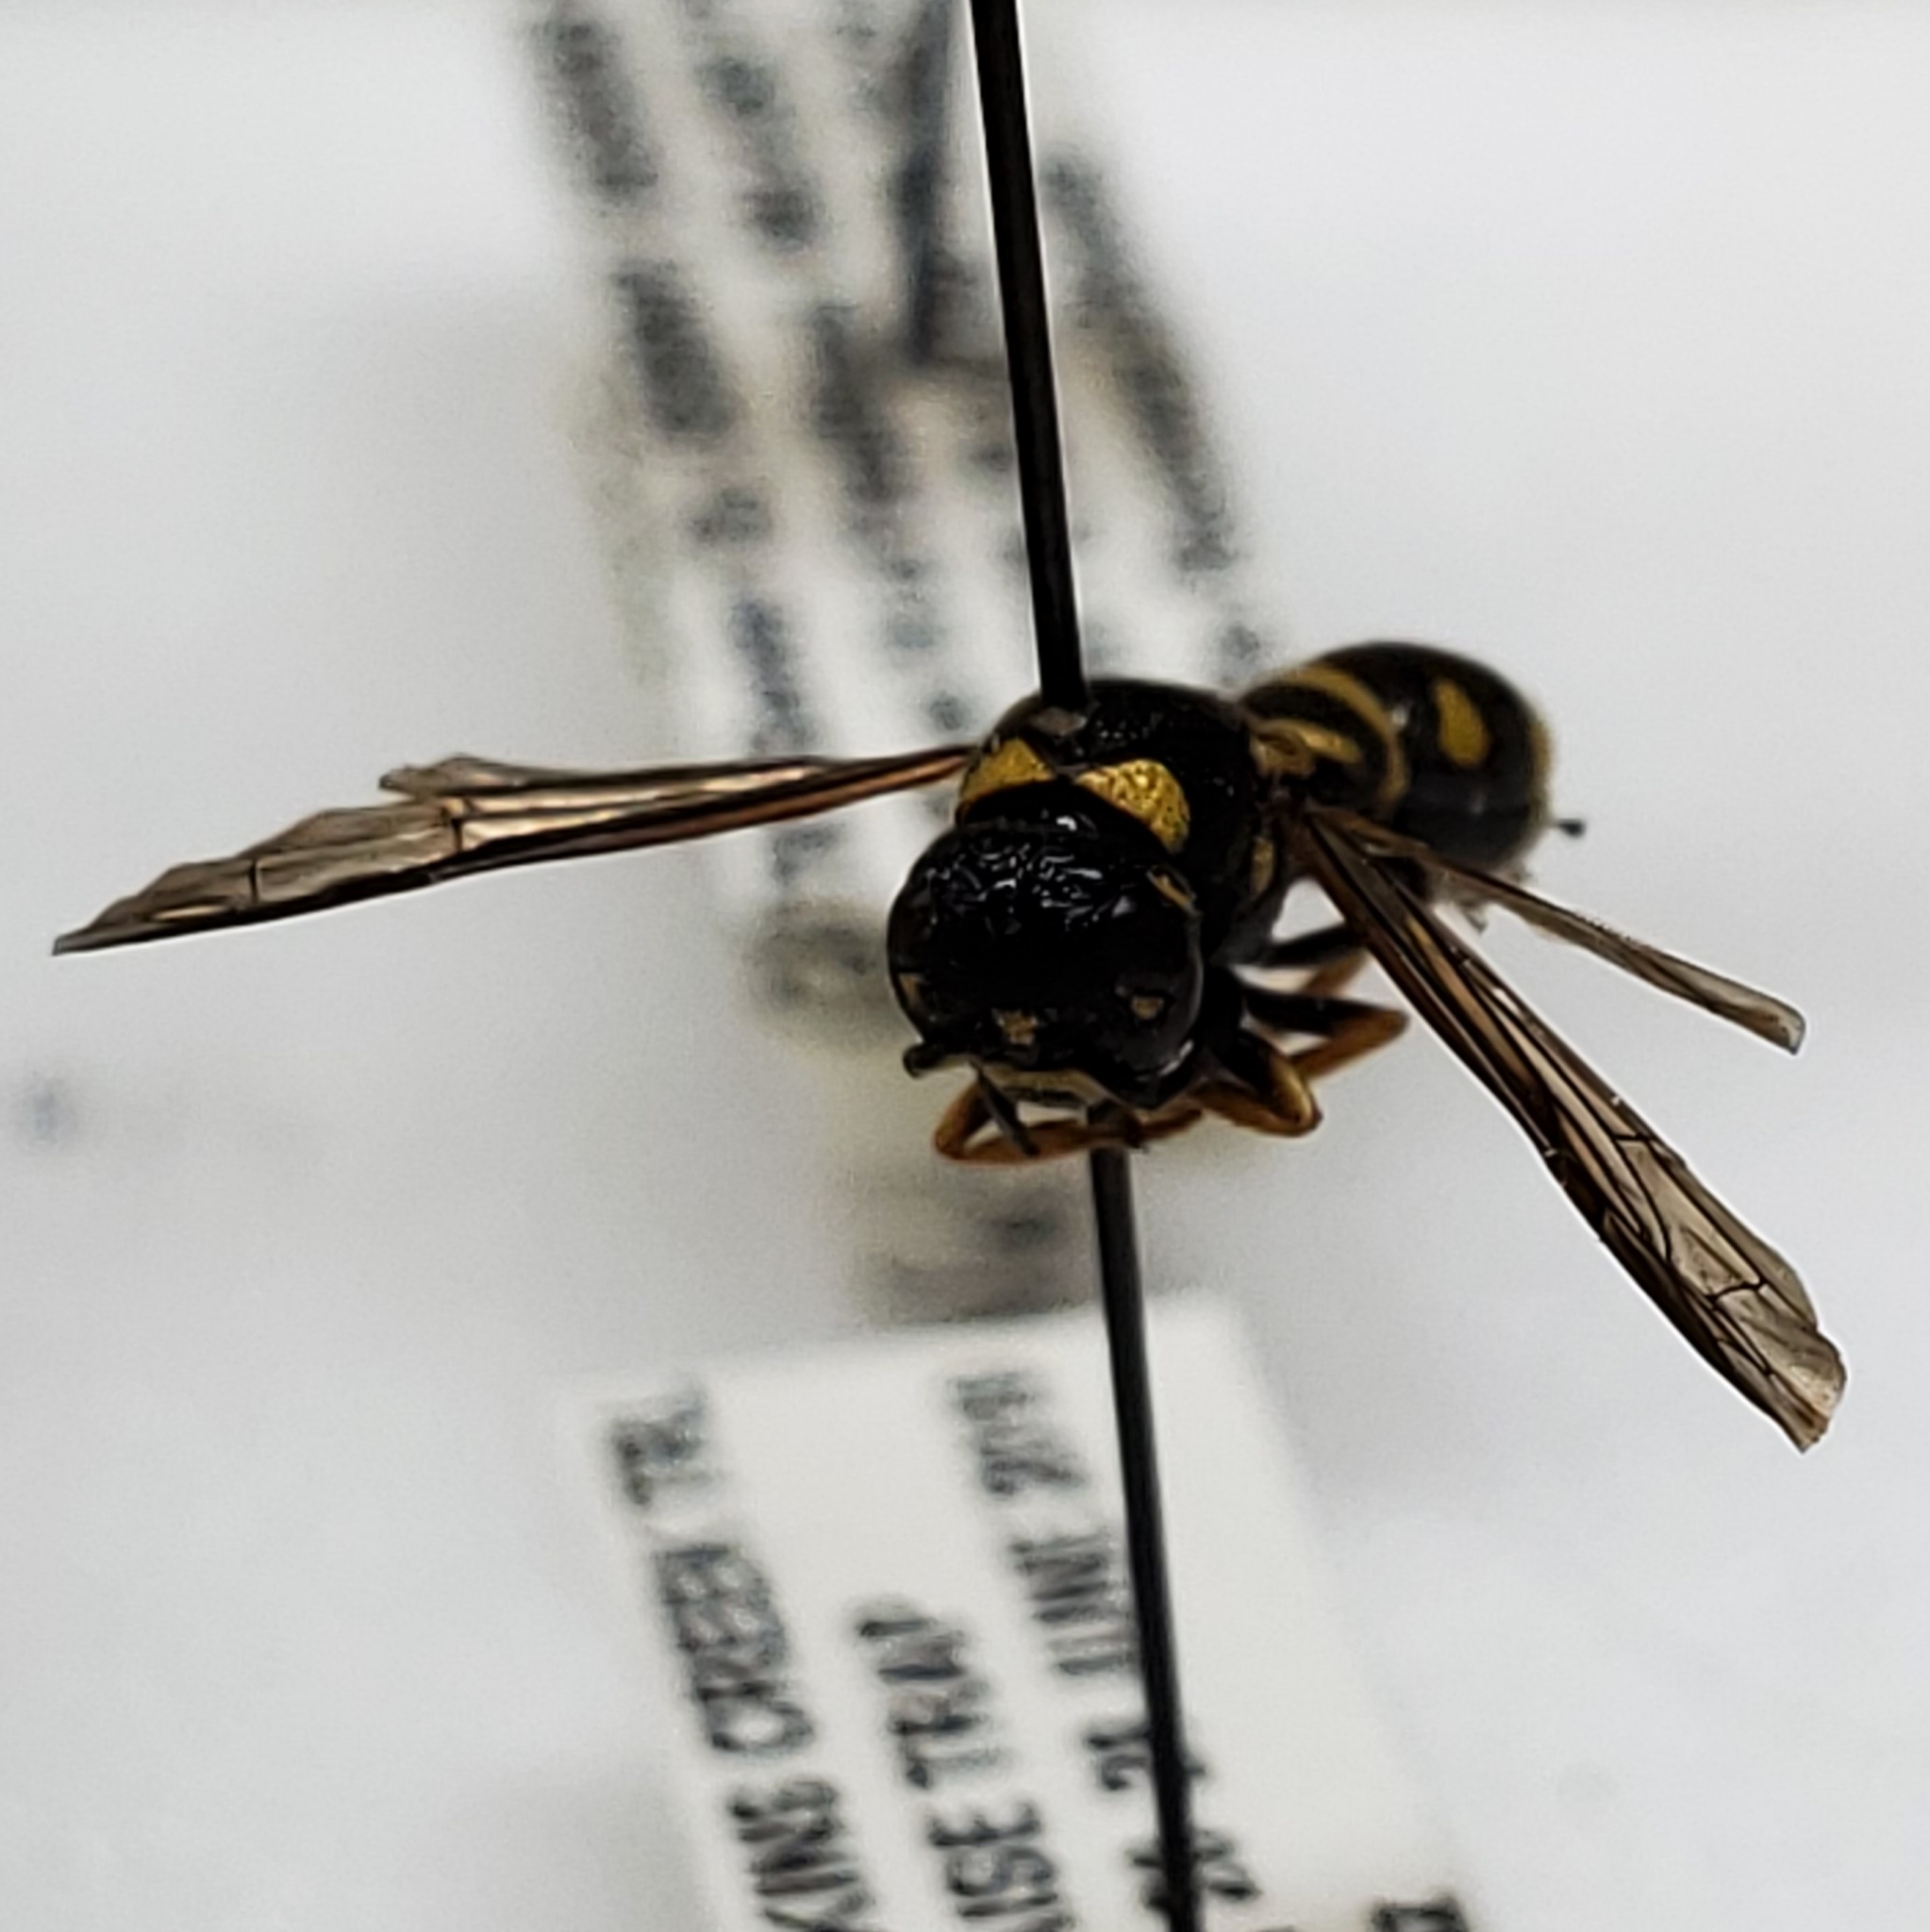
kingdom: Animalia
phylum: Arthropoda
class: Insecta
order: Hymenoptera
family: Eumenidae
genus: Parancistrocerus
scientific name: Parancistrocerus pedestris
